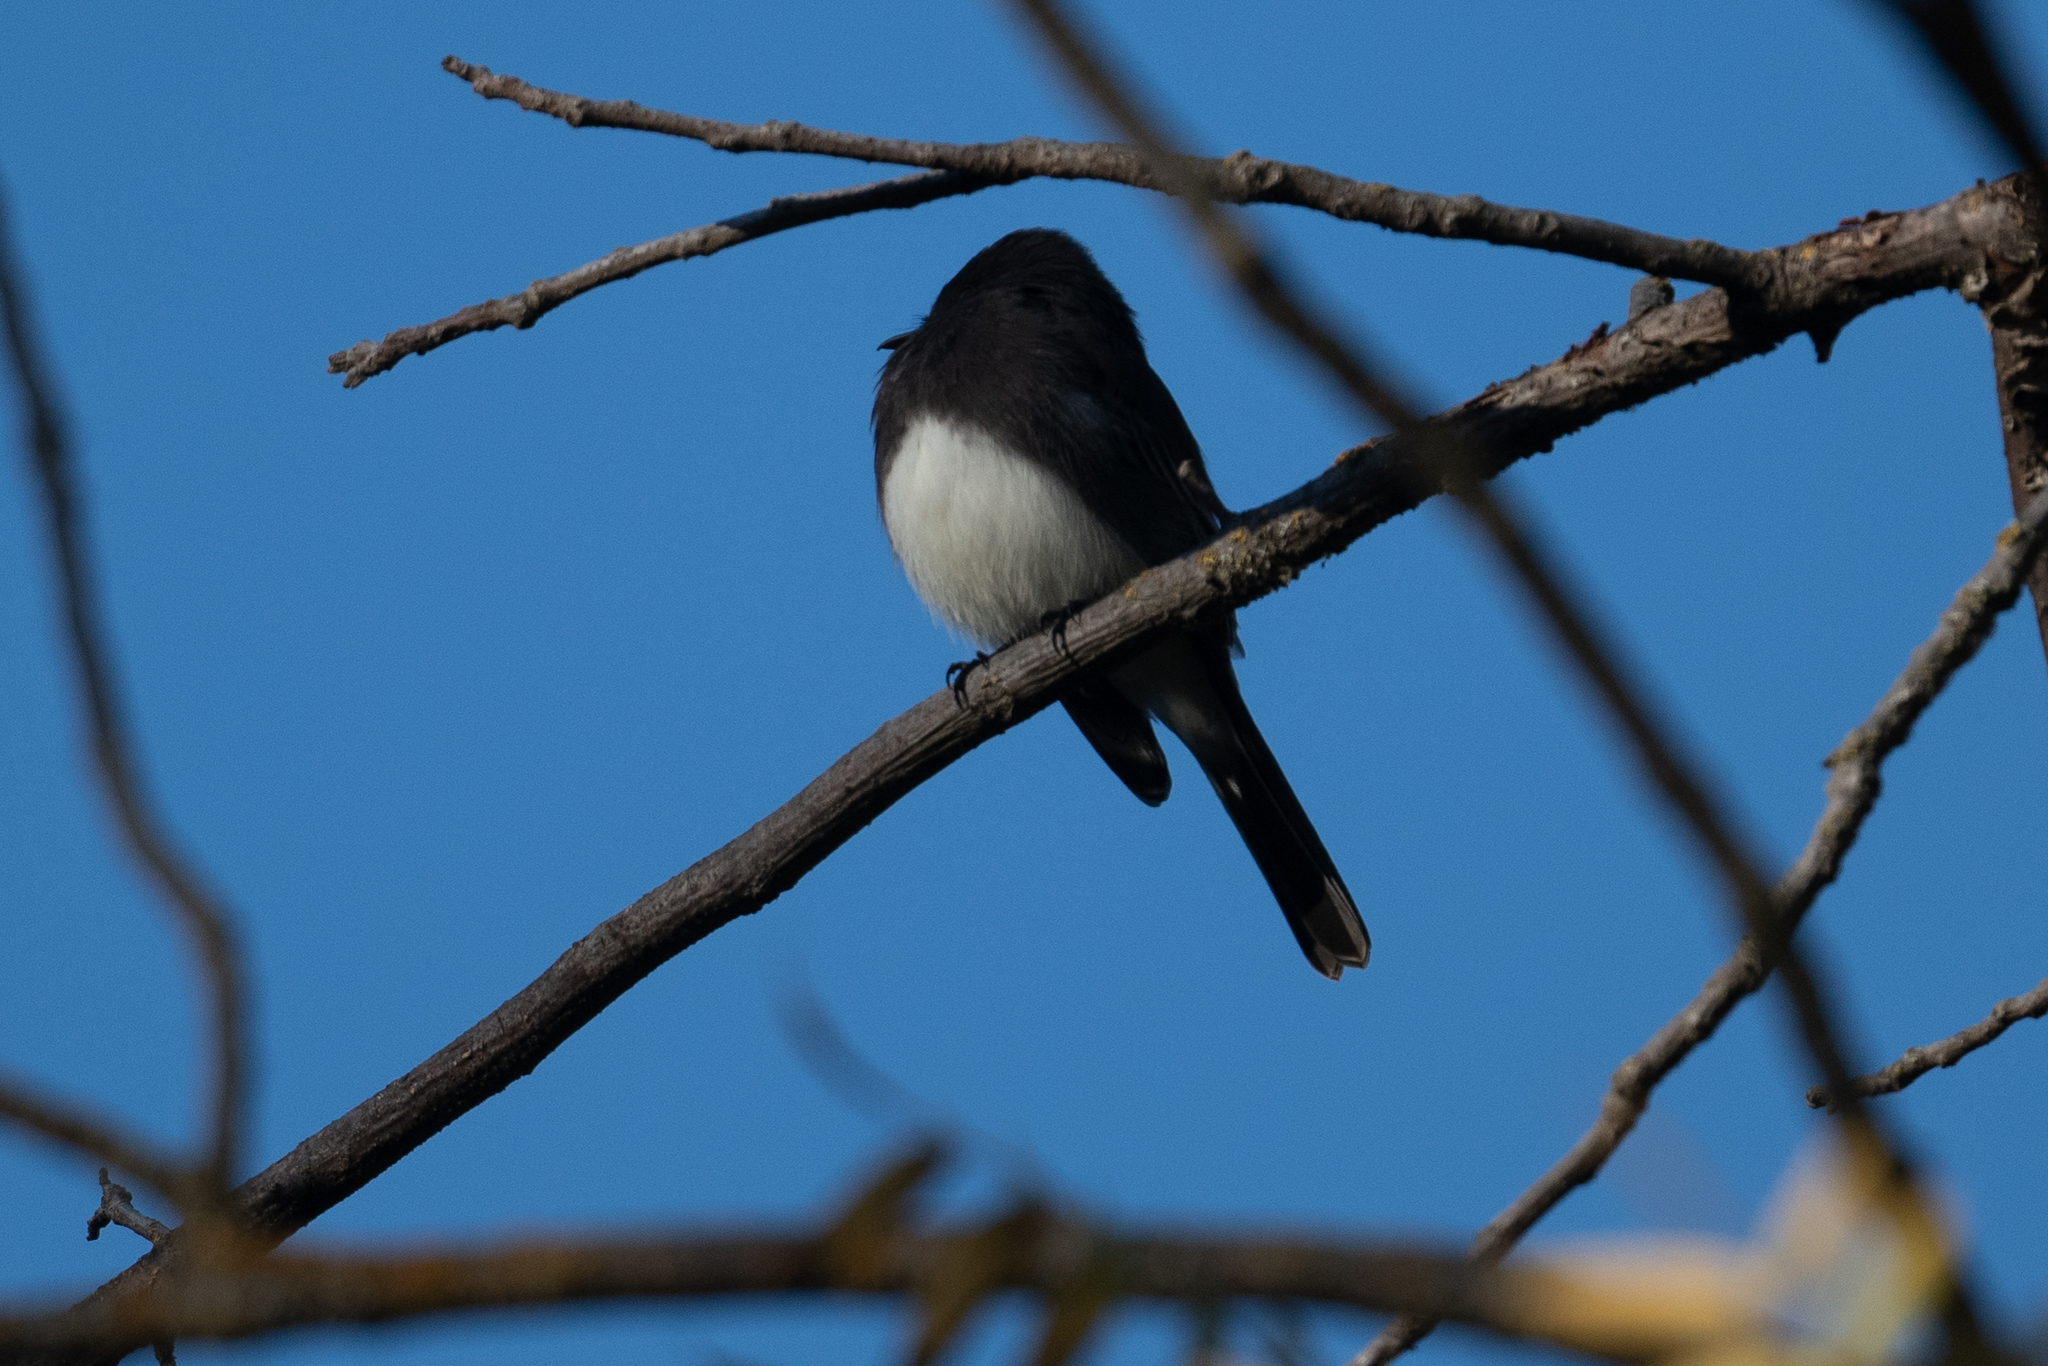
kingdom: Animalia
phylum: Chordata
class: Aves
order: Passeriformes
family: Tyrannidae
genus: Sayornis
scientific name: Sayornis nigricans
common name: Black phoebe
